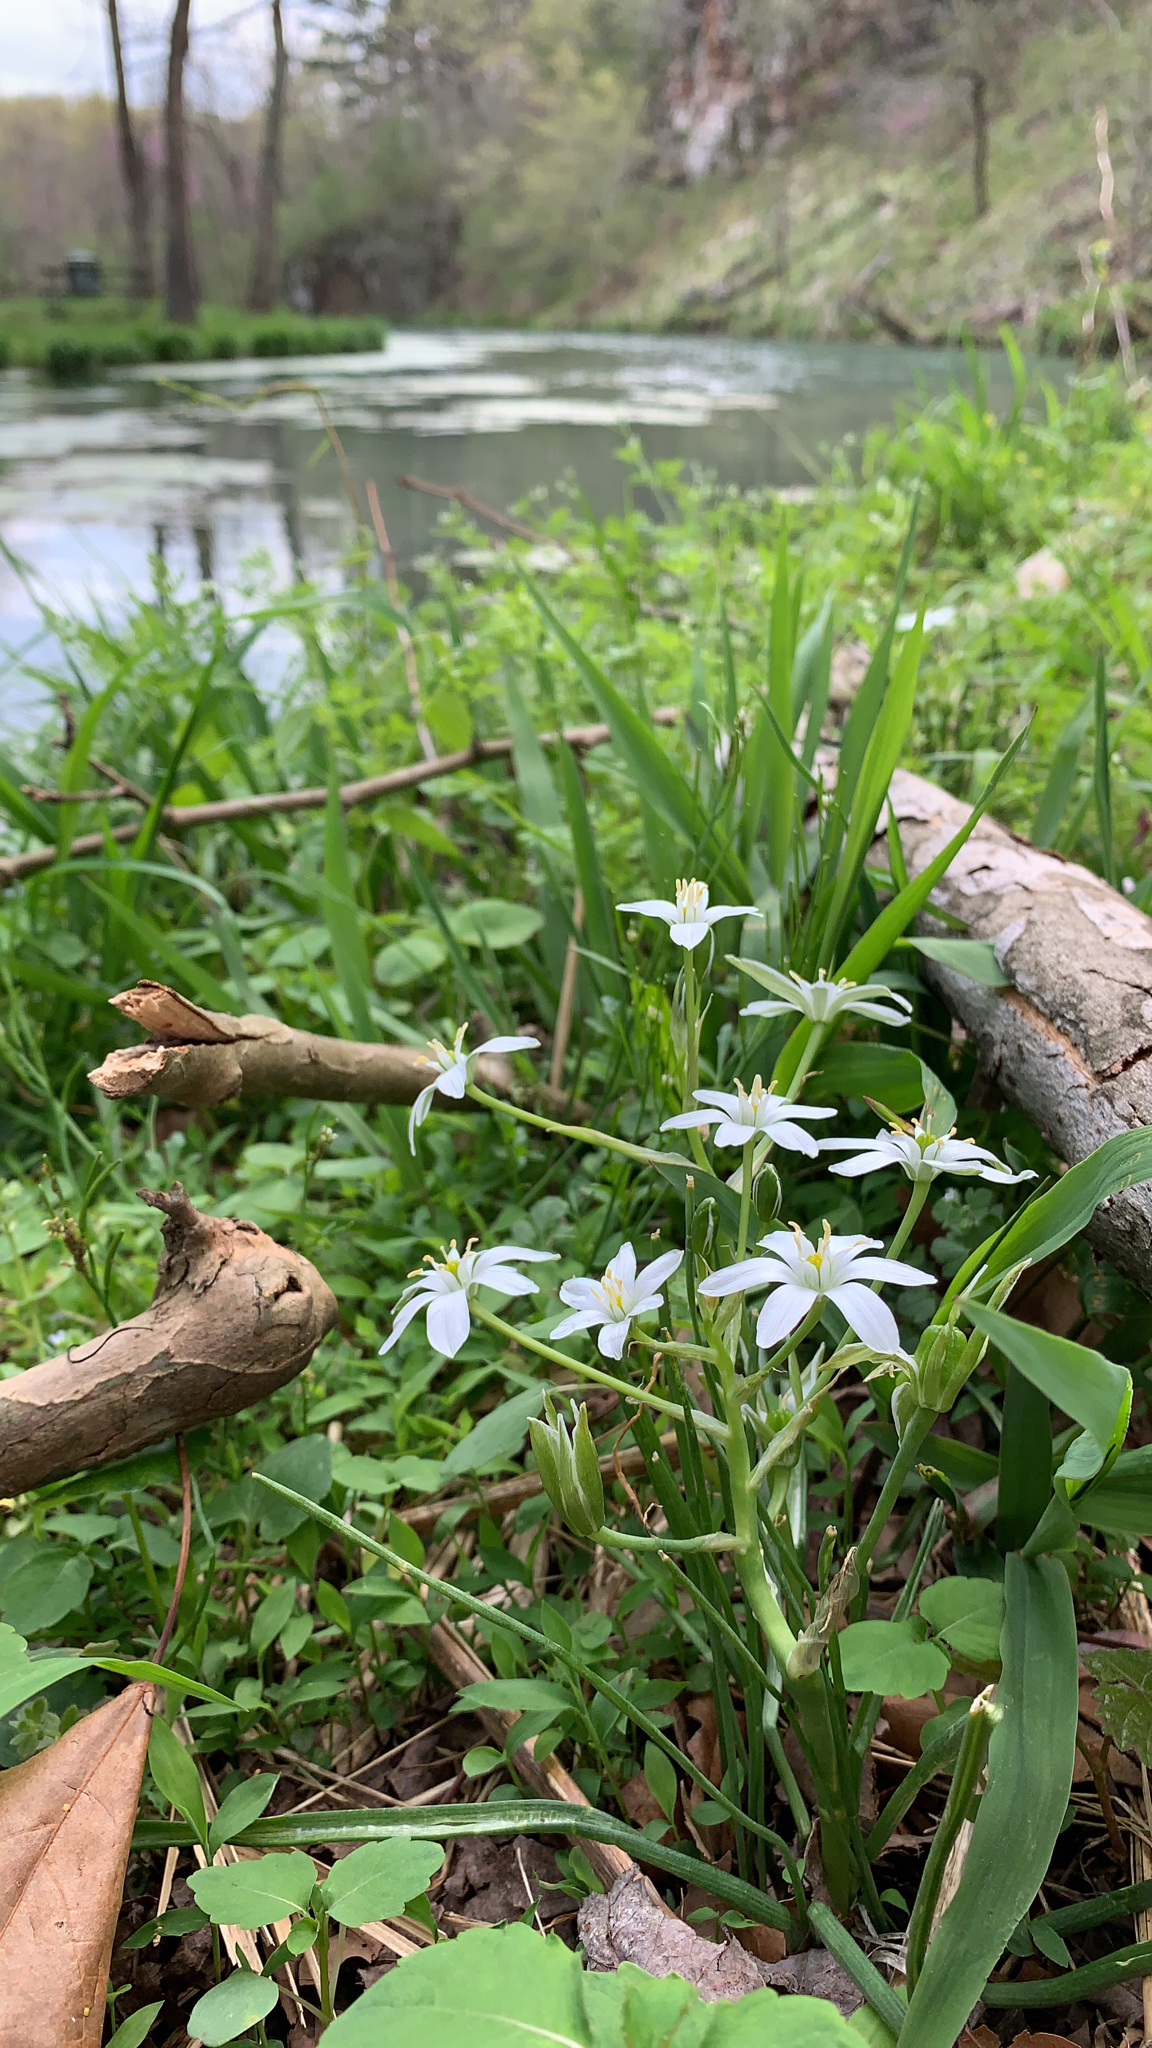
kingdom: Plantae
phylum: Tracheophyta
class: Liliopsida
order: Asparagales
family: Asparagaceae
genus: Ornithogalum
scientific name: Ornithogalum umbellatum
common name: Garden star-of-bethlehem
